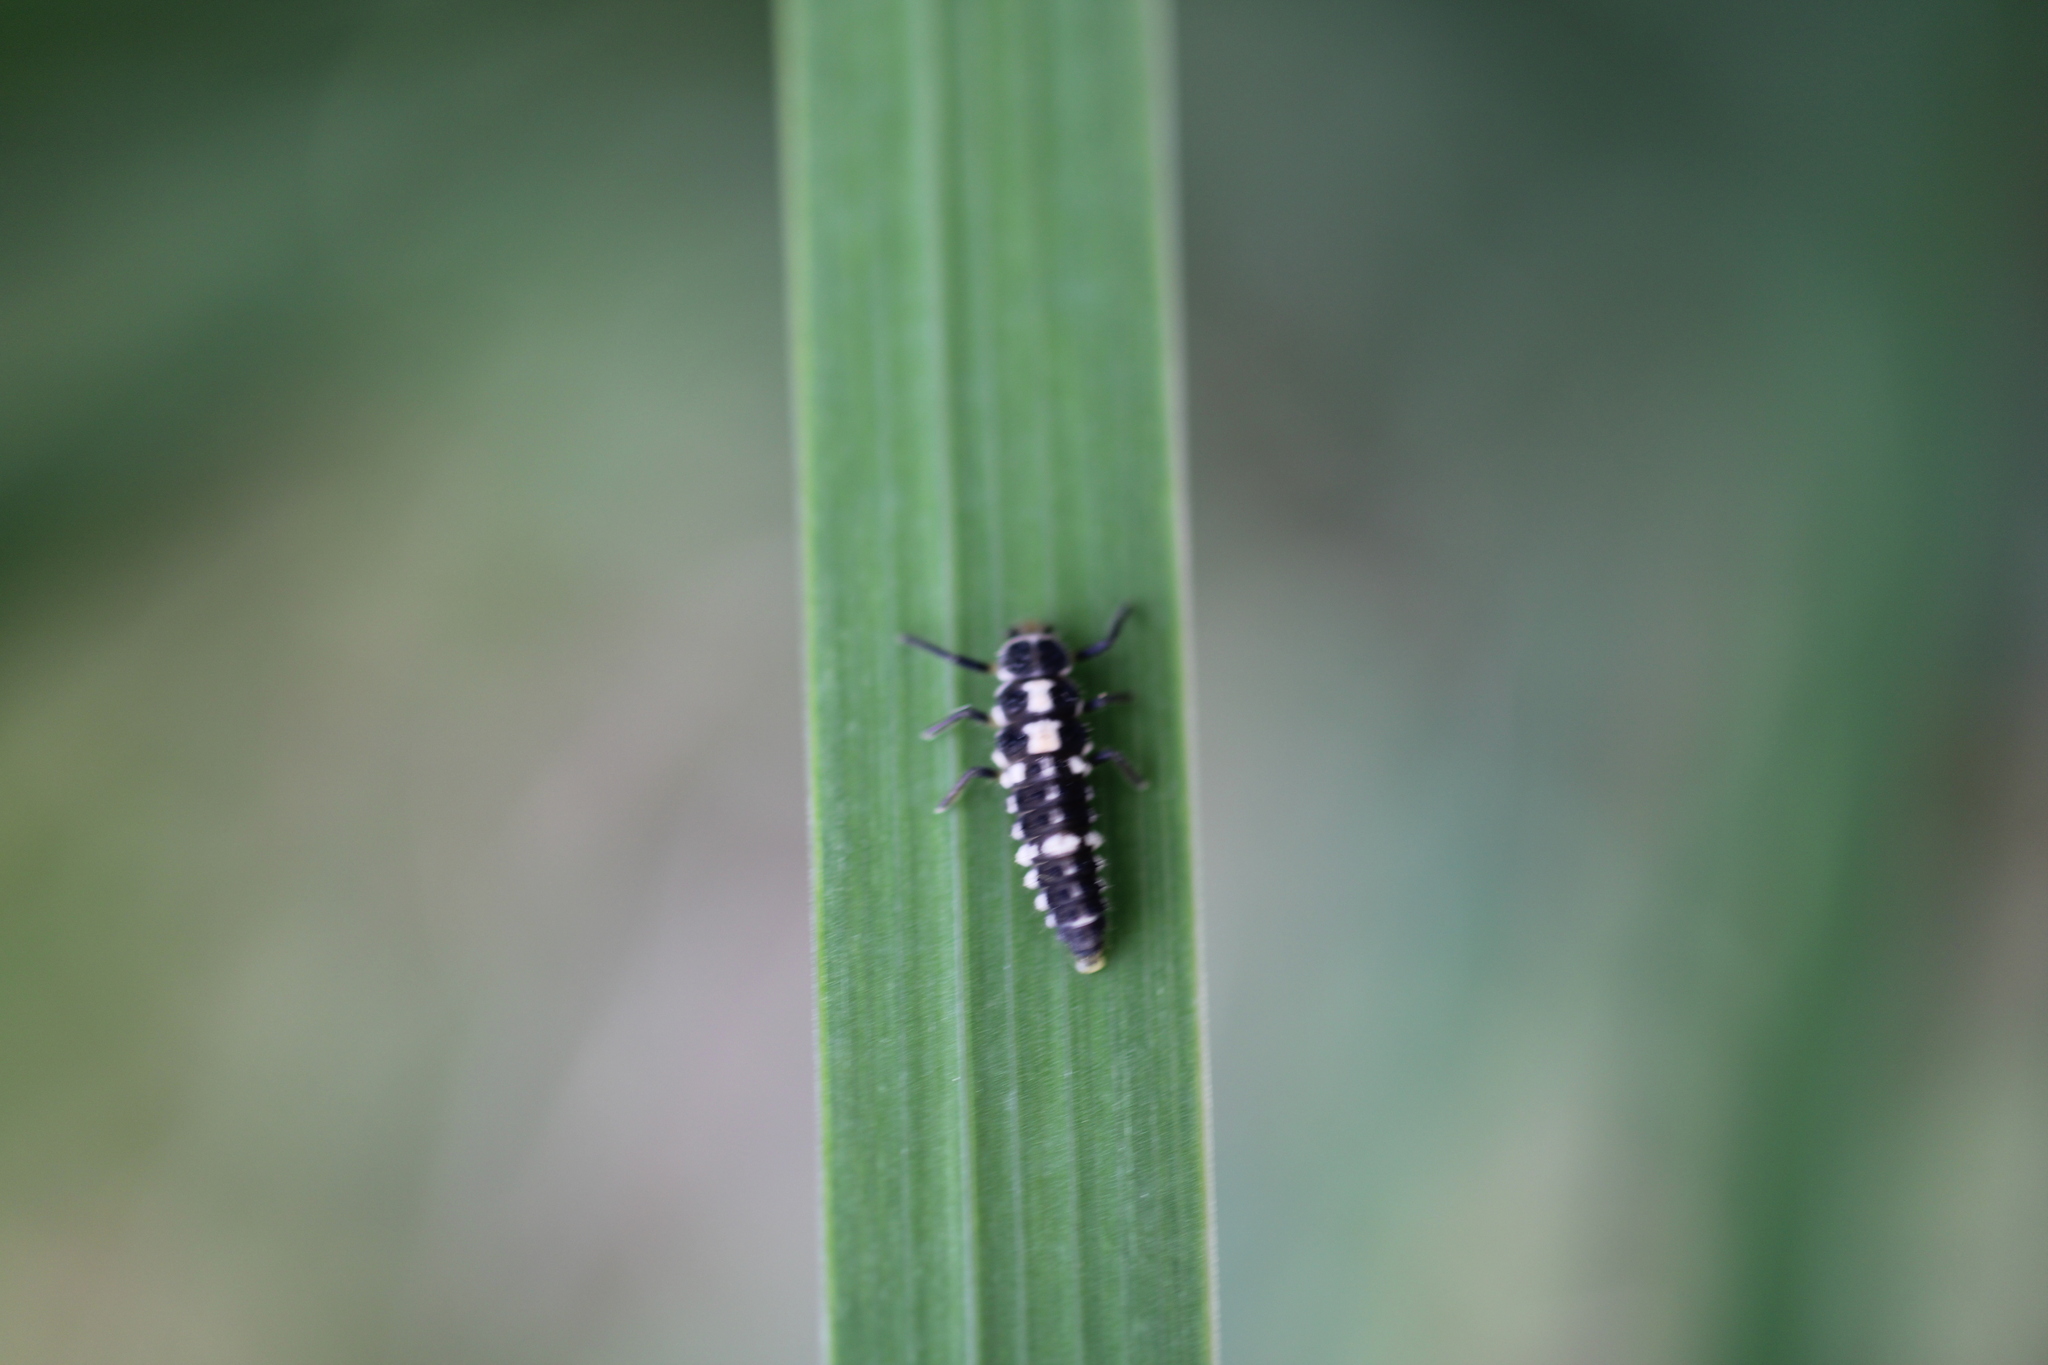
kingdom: Animalia
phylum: Arthropoda
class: Insecta
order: Coleoptera
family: Coccinellidae
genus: Propylaea
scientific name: Propylaea quatuordecimpunctata
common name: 14-spotted ladybird beetle
